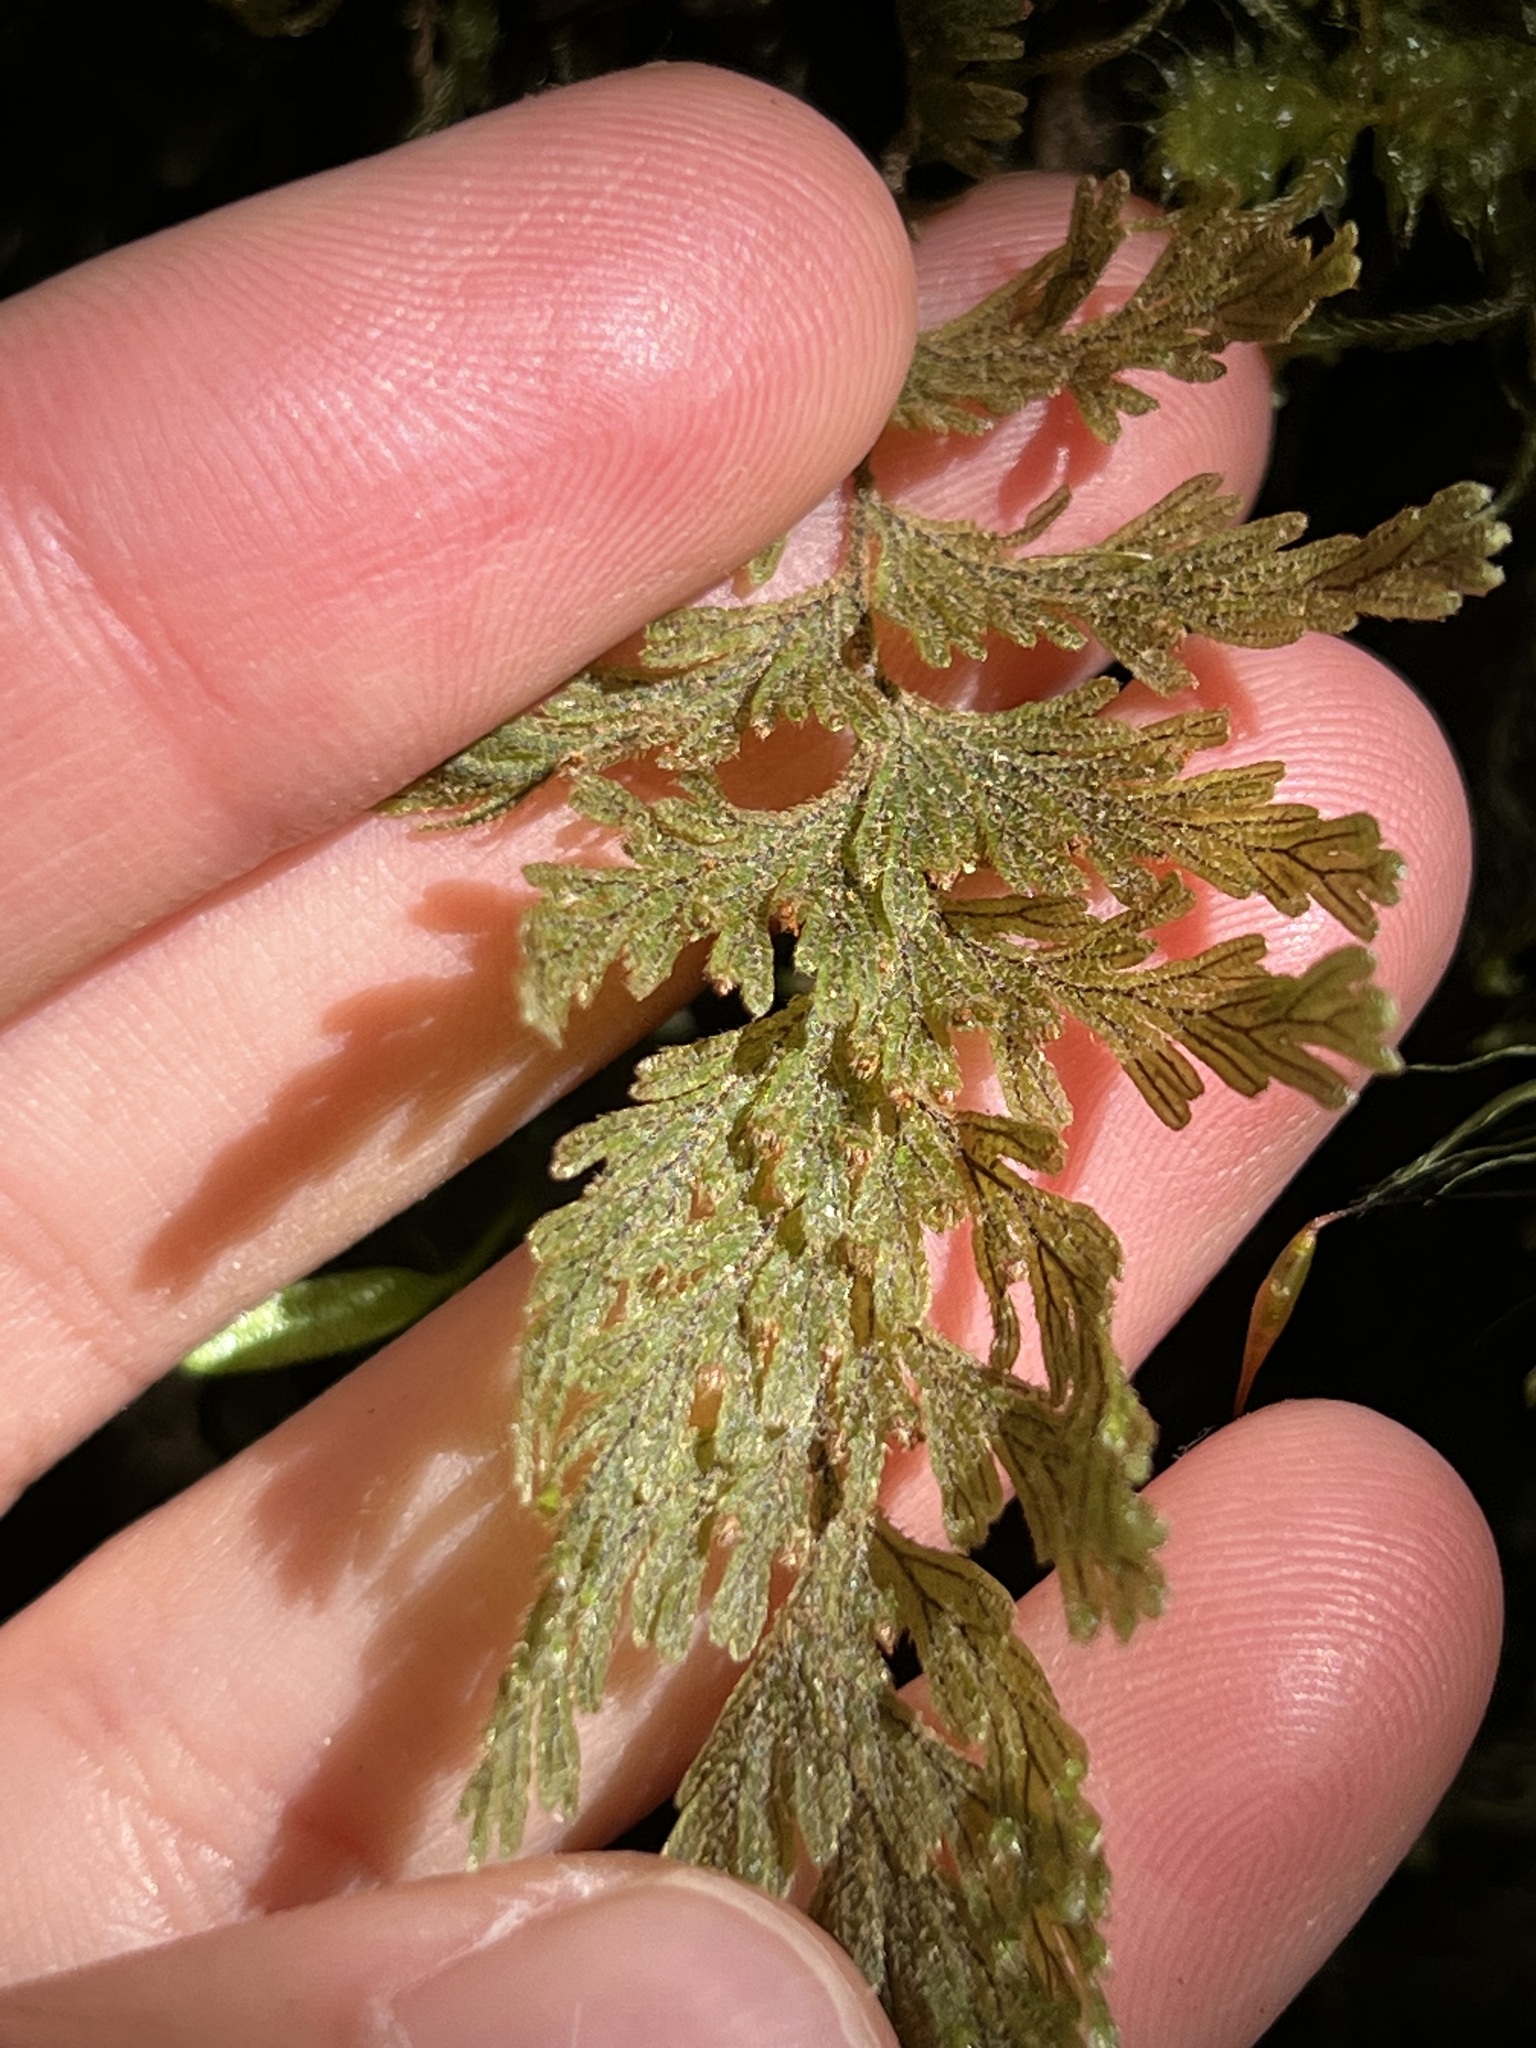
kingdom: Plantae
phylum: Tracheophyta
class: Polypodiopsida
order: Hymenophyllales
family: Hymenophyllaceae
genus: Hymenophyllum
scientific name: Hymenophyllum frankliniae
